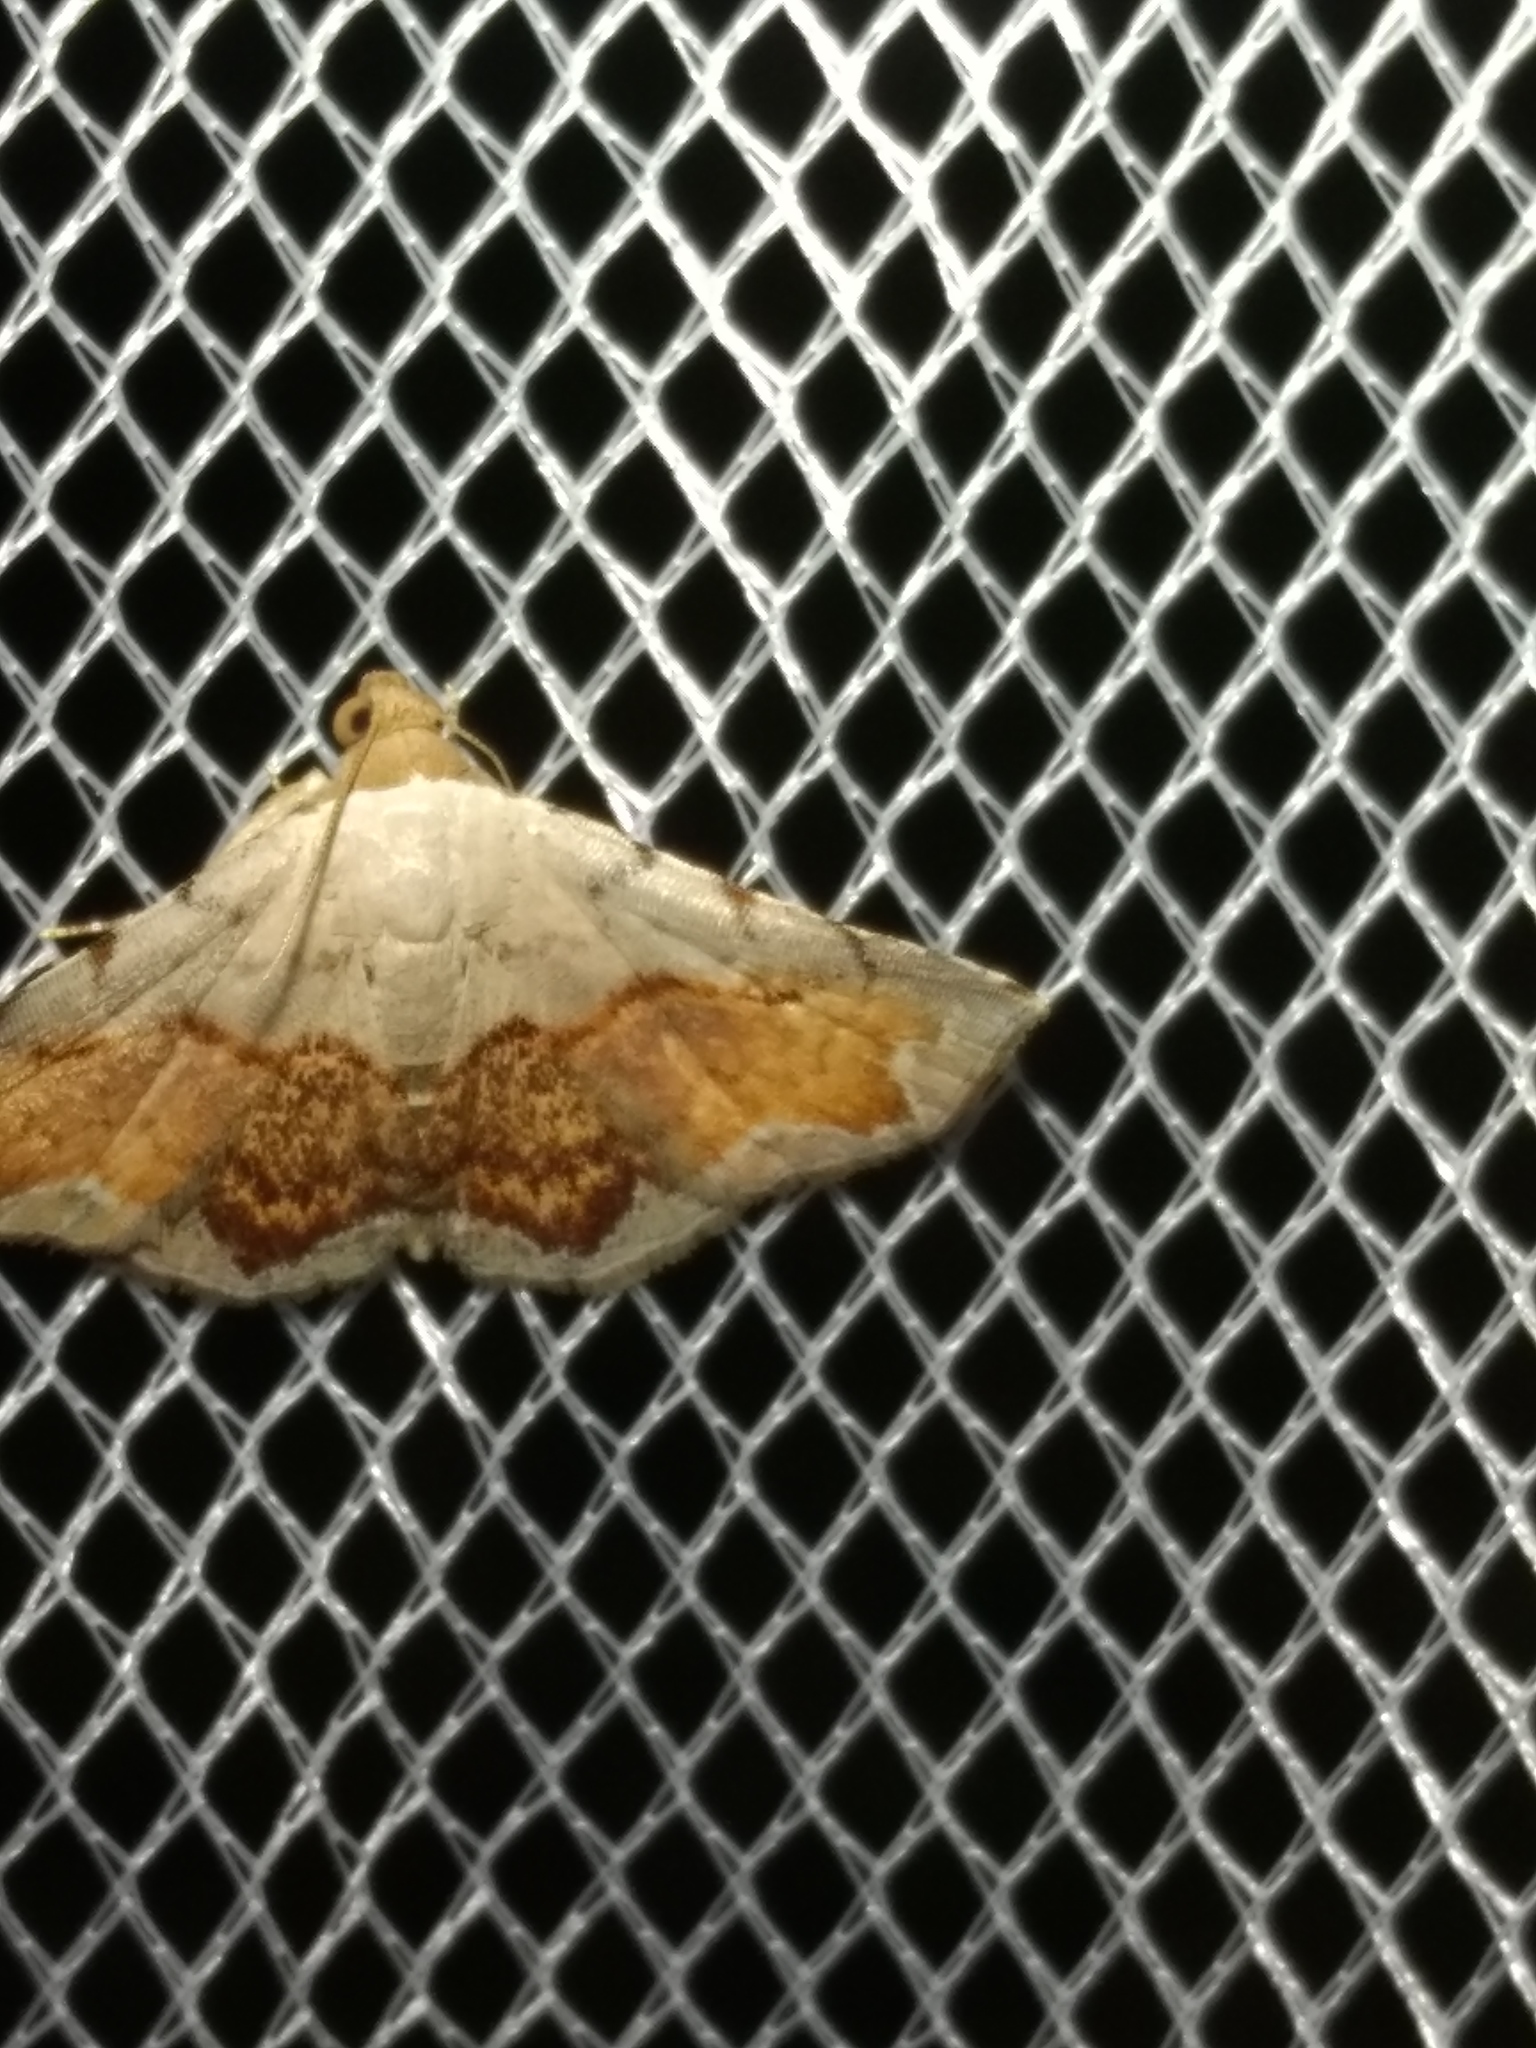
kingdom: Animalia
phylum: Arthropoda
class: Insecta
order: Lepidoptera
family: Noctuidae
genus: Eublemma
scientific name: Eublemma
